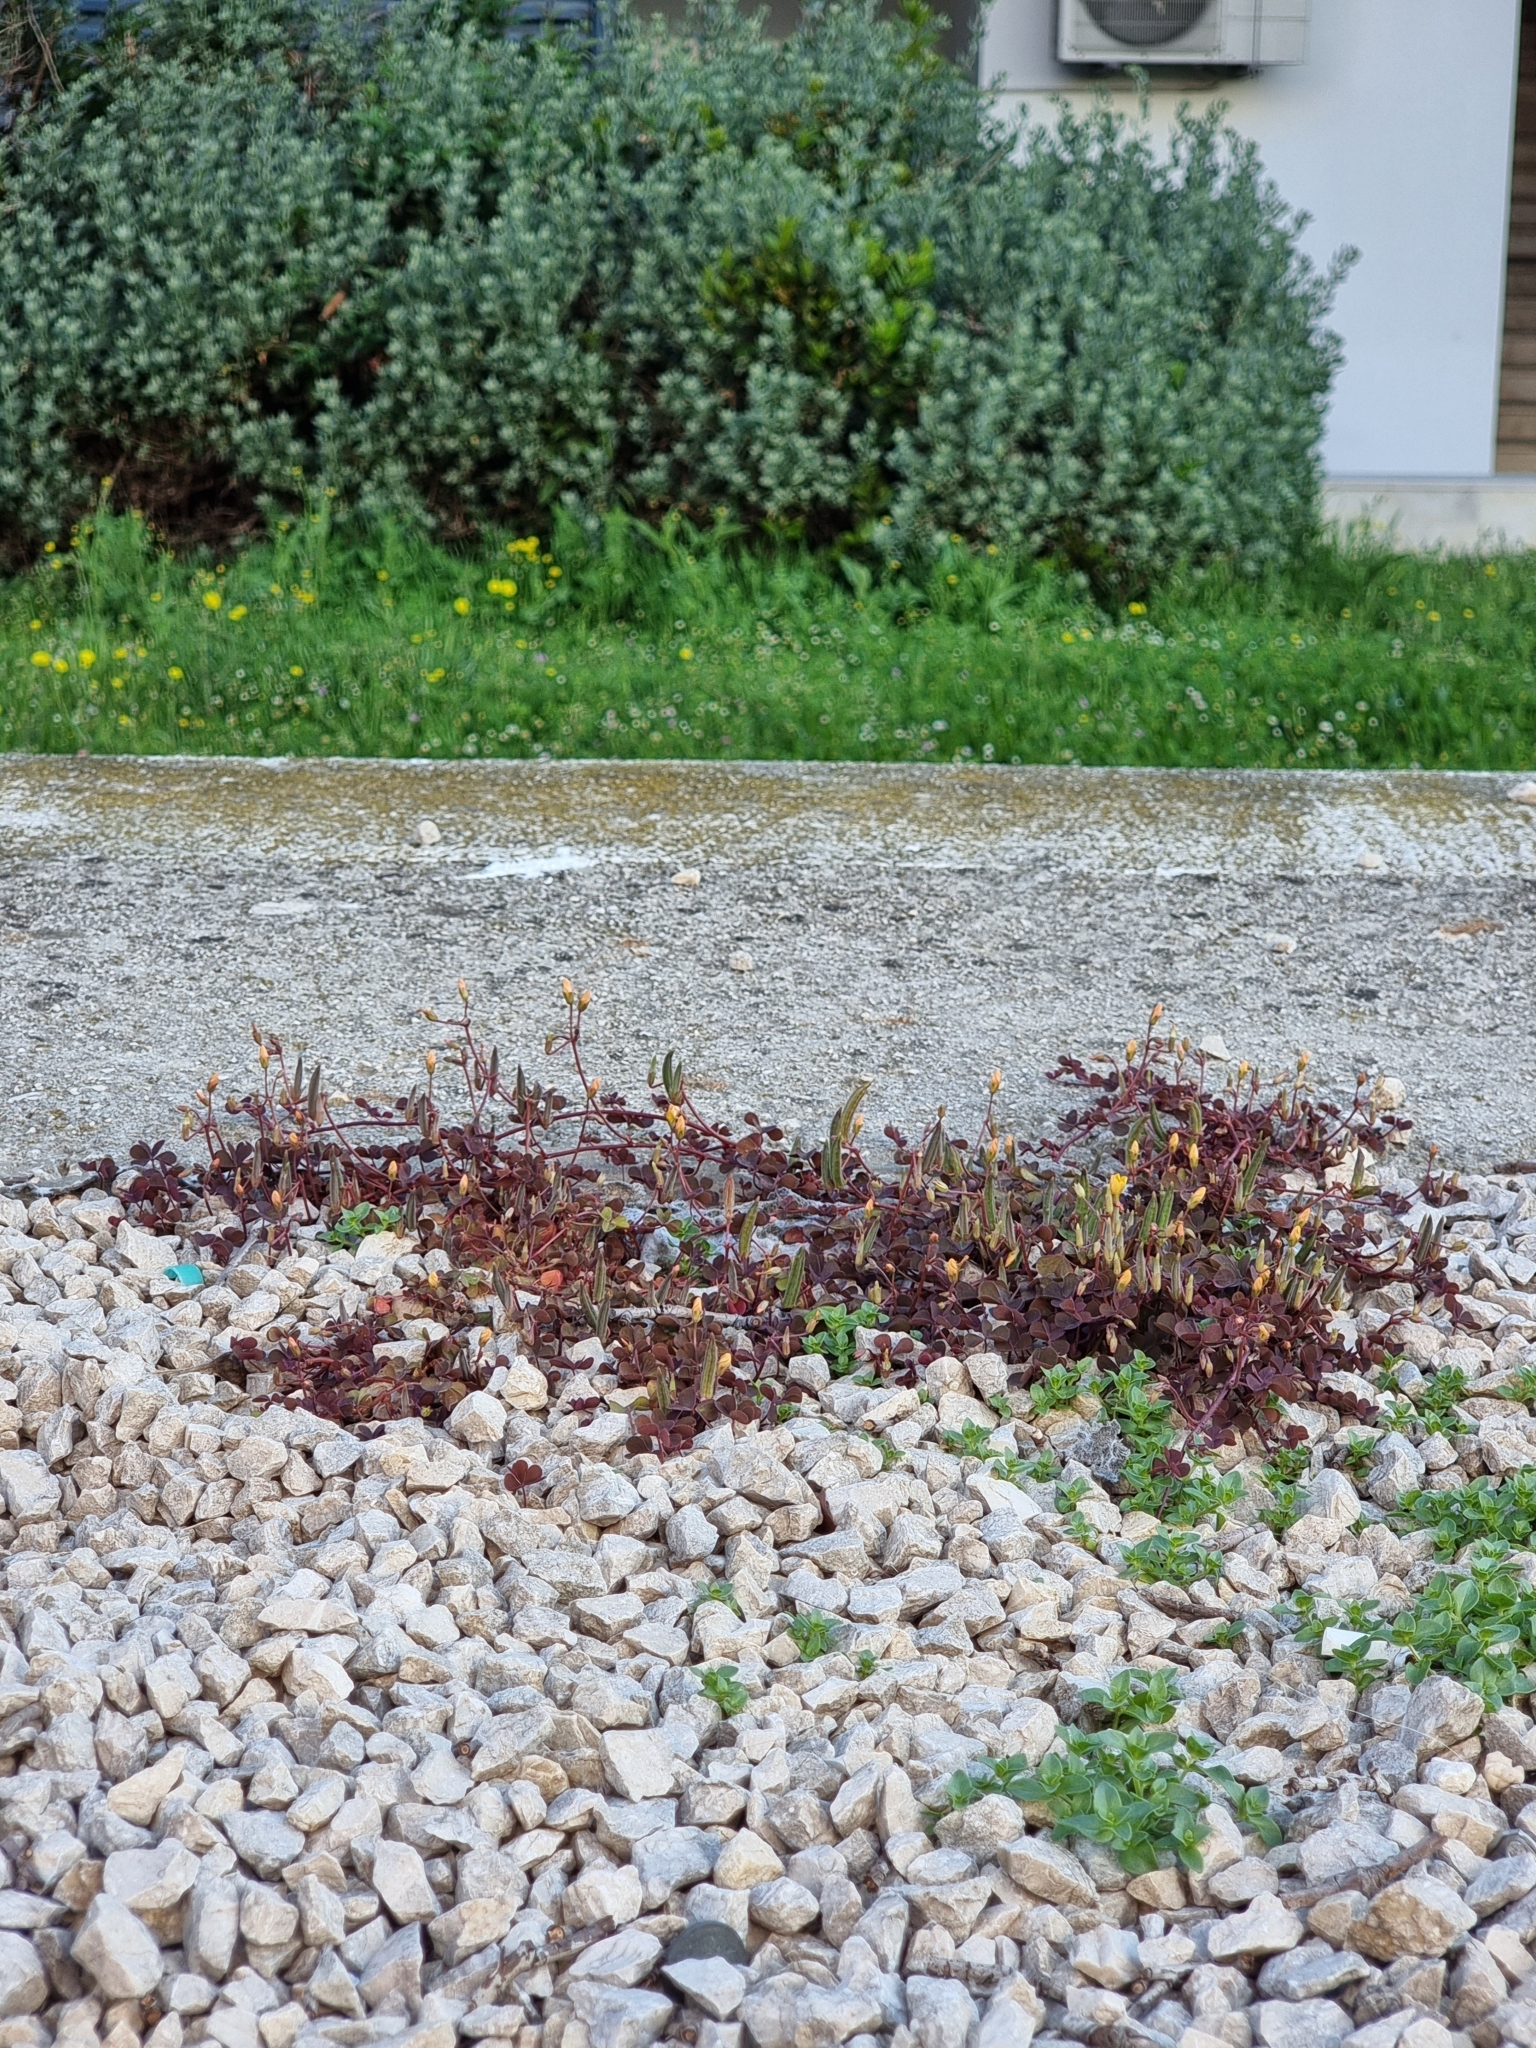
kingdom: Plantae
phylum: Tracheophyta
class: Magnoliopsida
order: Oxalidales
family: Oxalidaceae
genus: Oxalis
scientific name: Oxalis corniculata
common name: Procumbent yellow-sorrel
